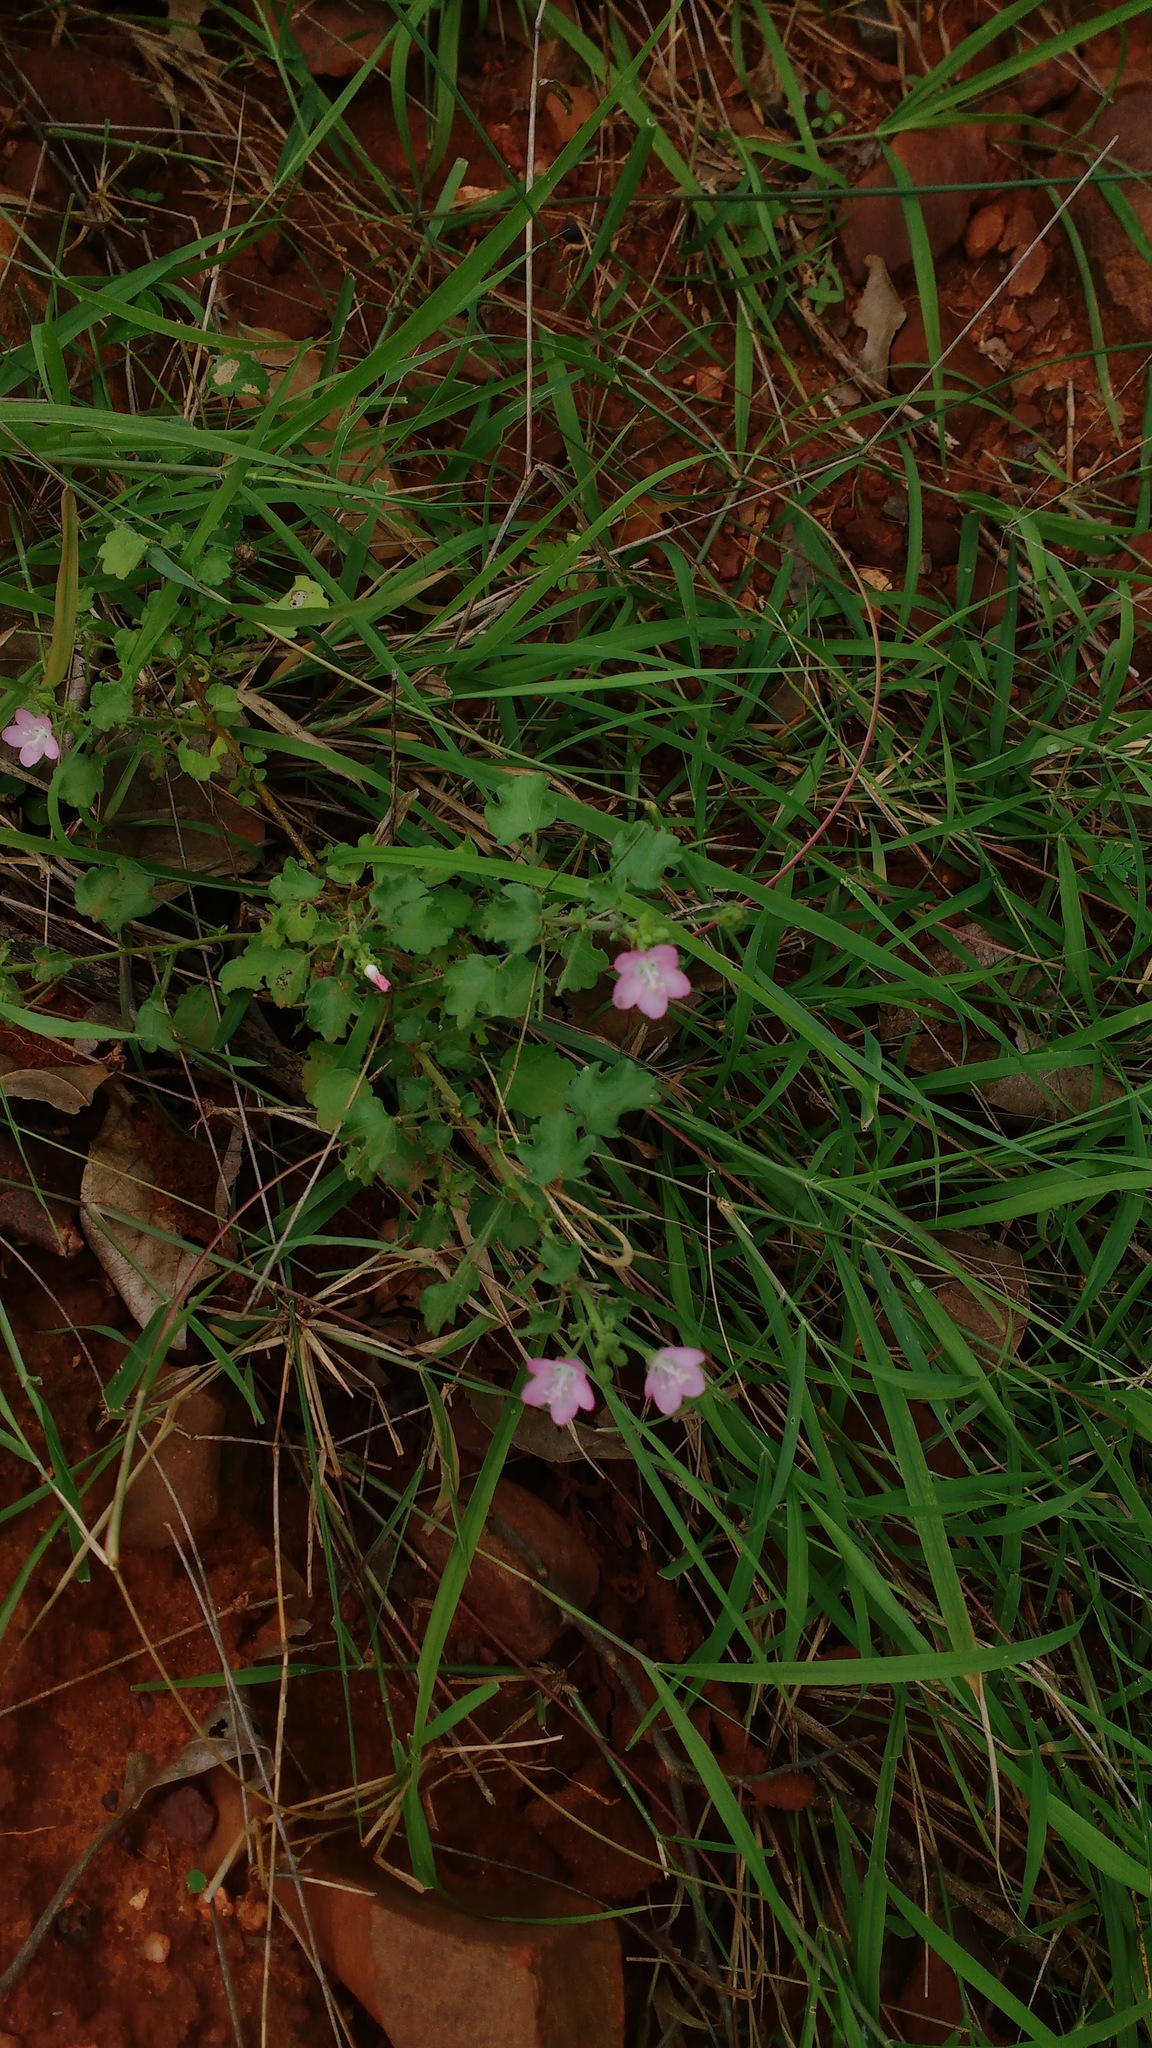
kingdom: Plantae
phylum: Tracheophyta
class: Magnoliopsida
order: Malvales
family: Malvaceae
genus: Pavonia
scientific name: Pavonia zeylanica
